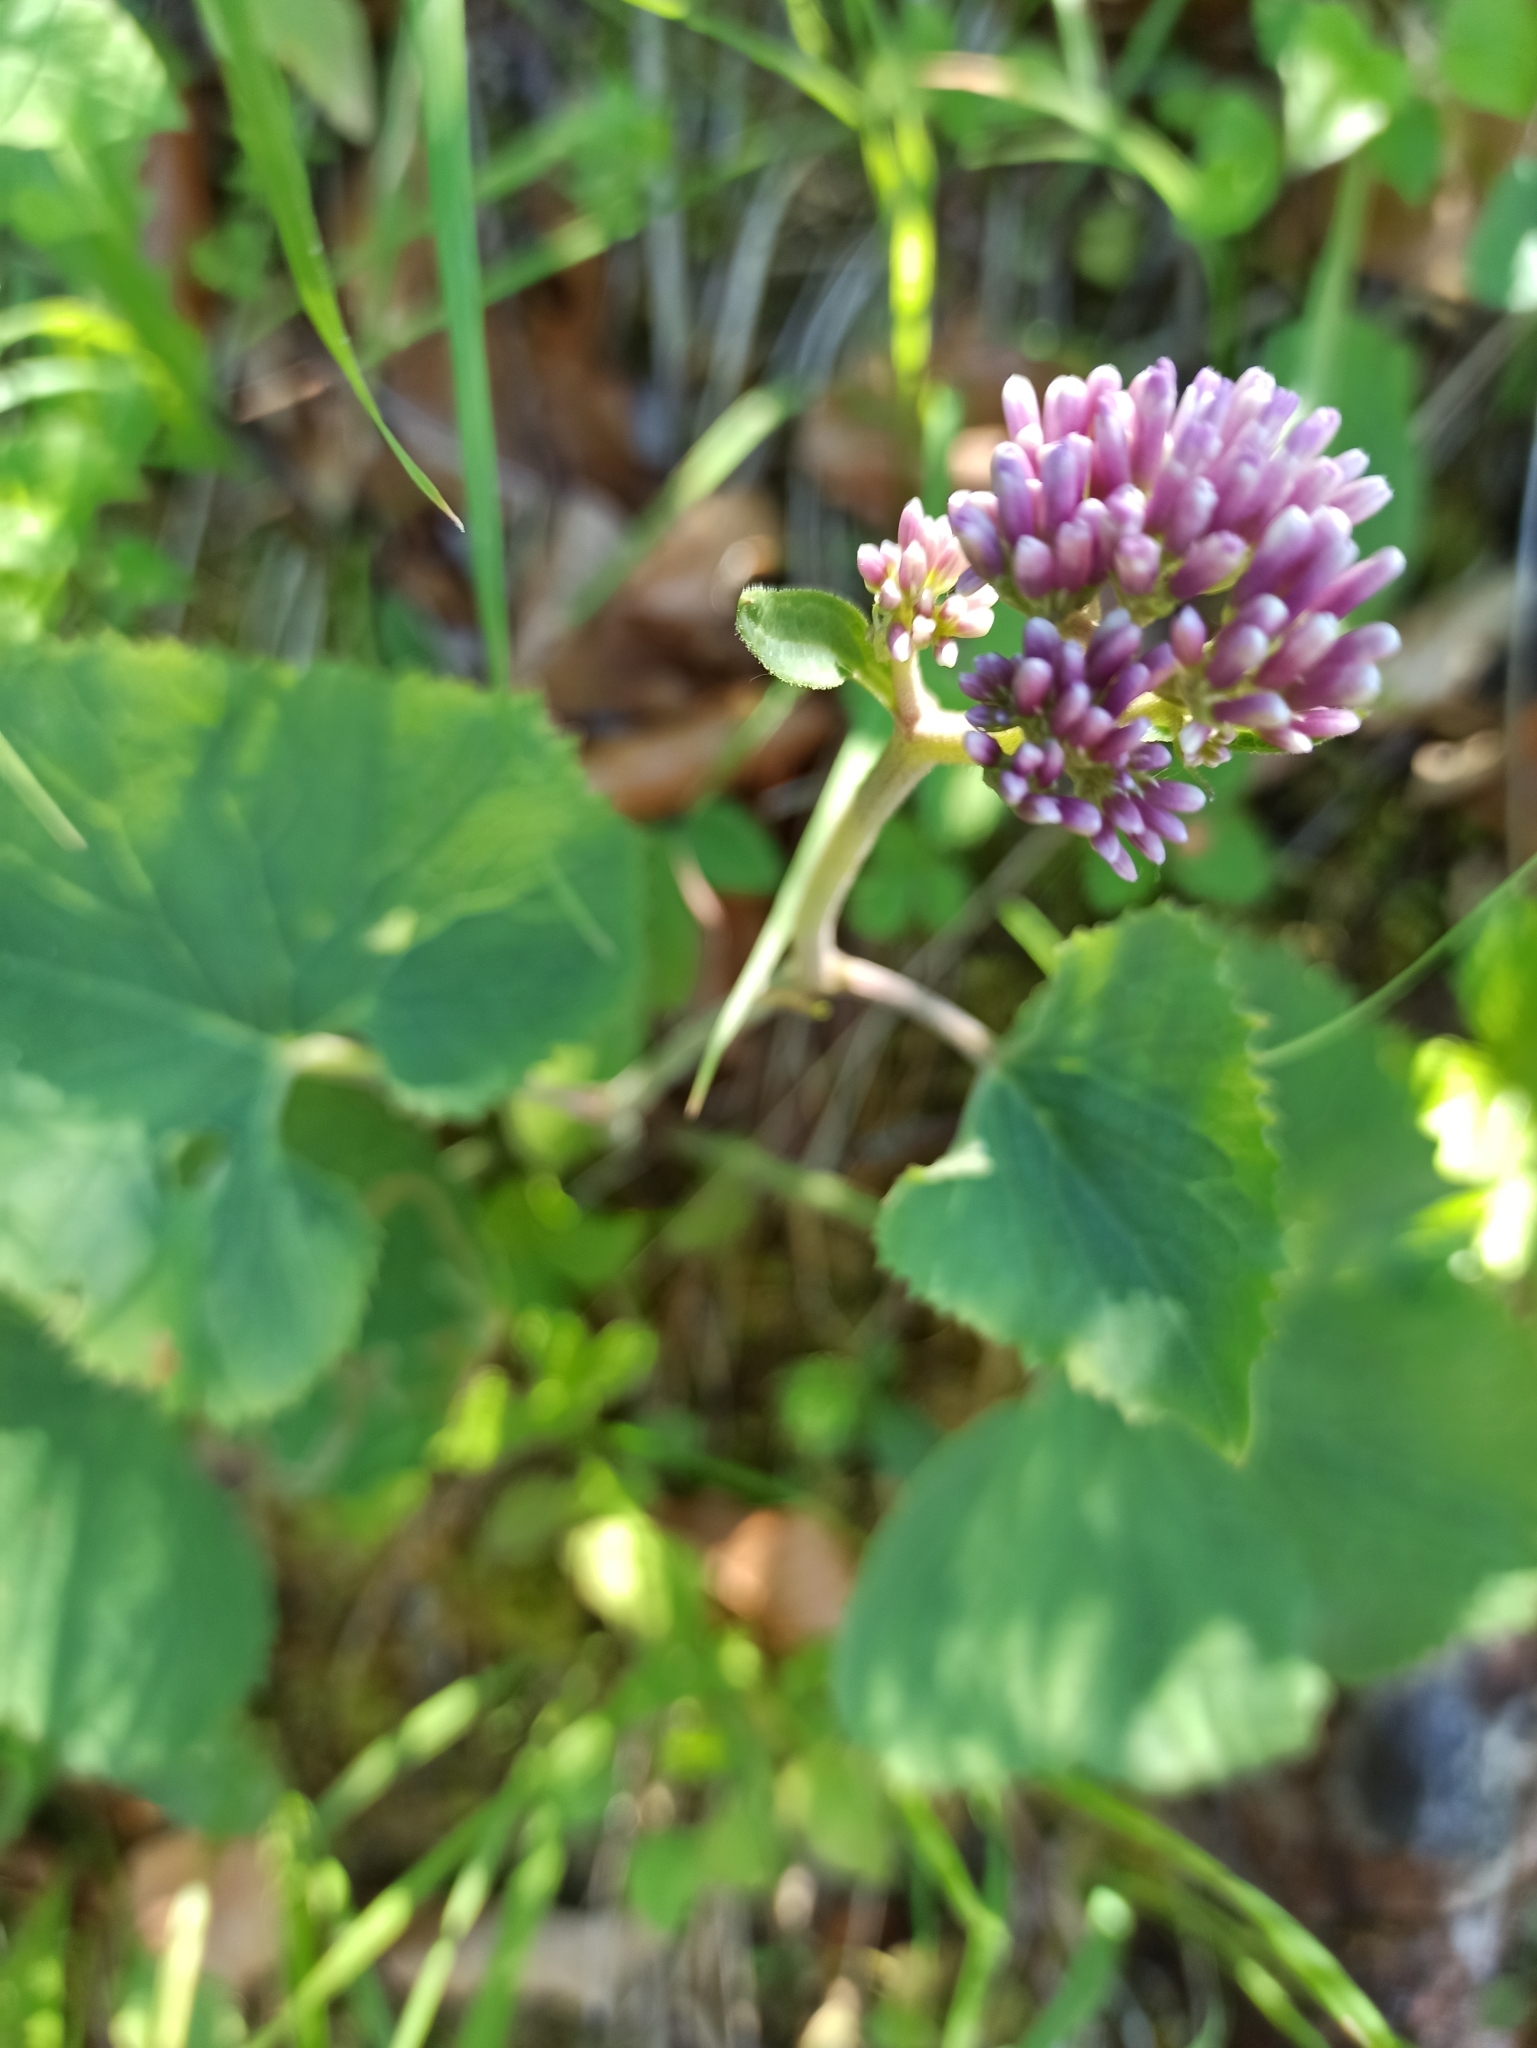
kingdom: Plantae
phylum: Tracheophyta
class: Magnoliopsida
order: Asterales
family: Asteraceae
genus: Adenostyles
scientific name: Adenostyles alpina
